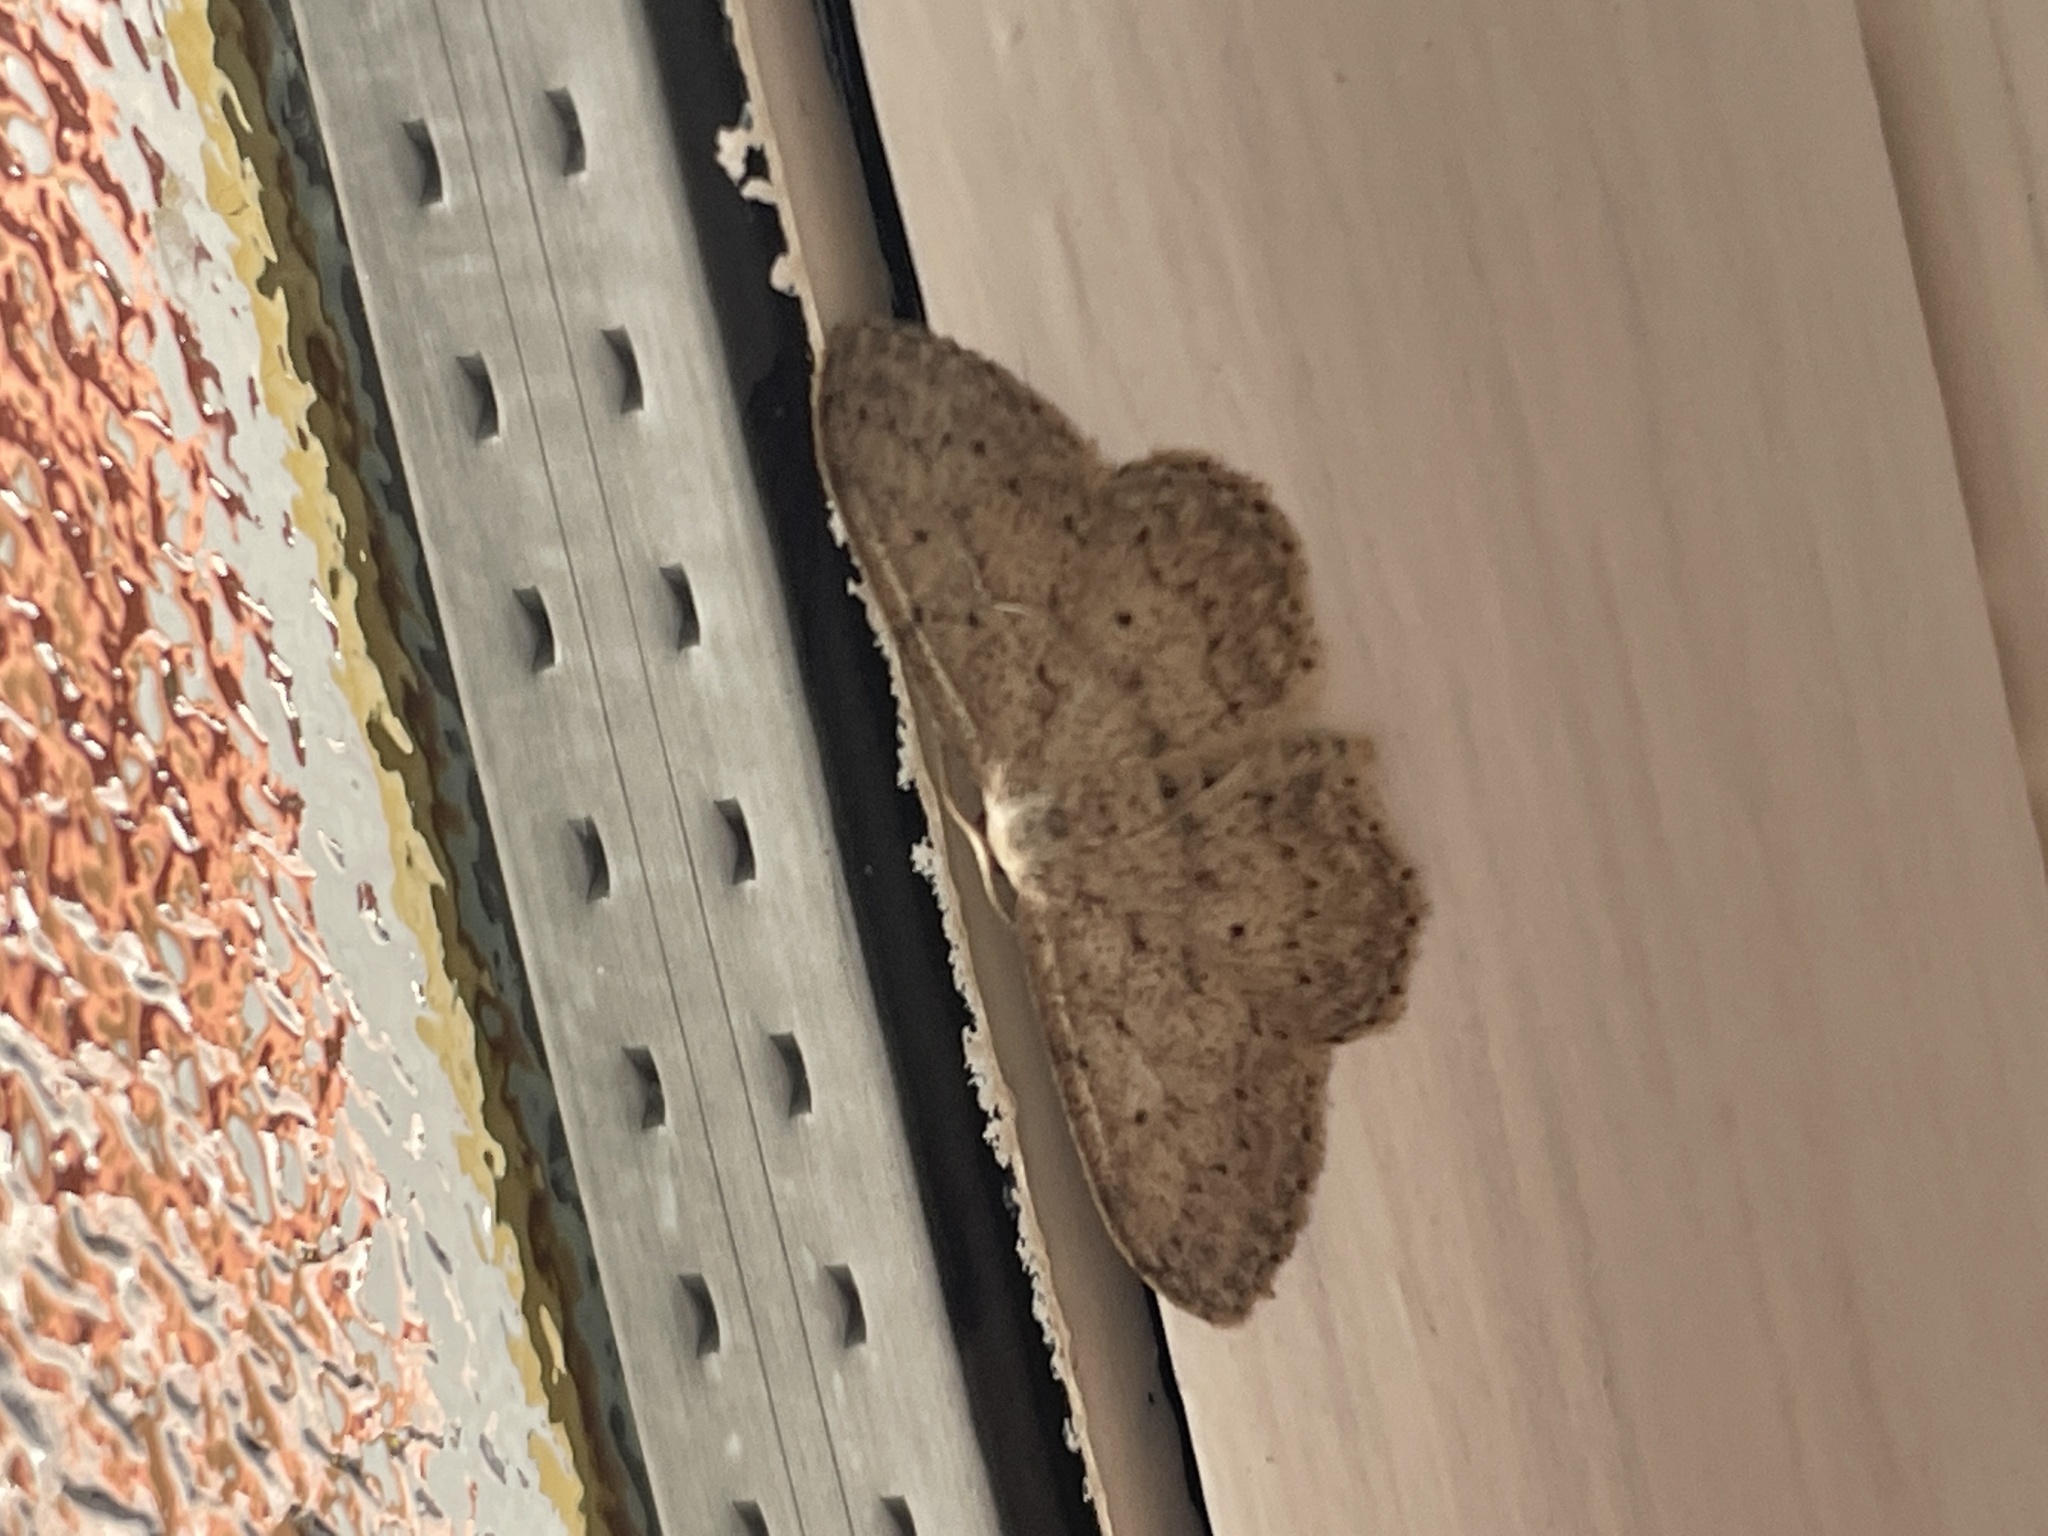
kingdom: Animalia
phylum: Arthropoda
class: Insecta
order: Lepidoptera
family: Geometridae
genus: Idaea
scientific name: Idaea seriata
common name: Small dusty wave
